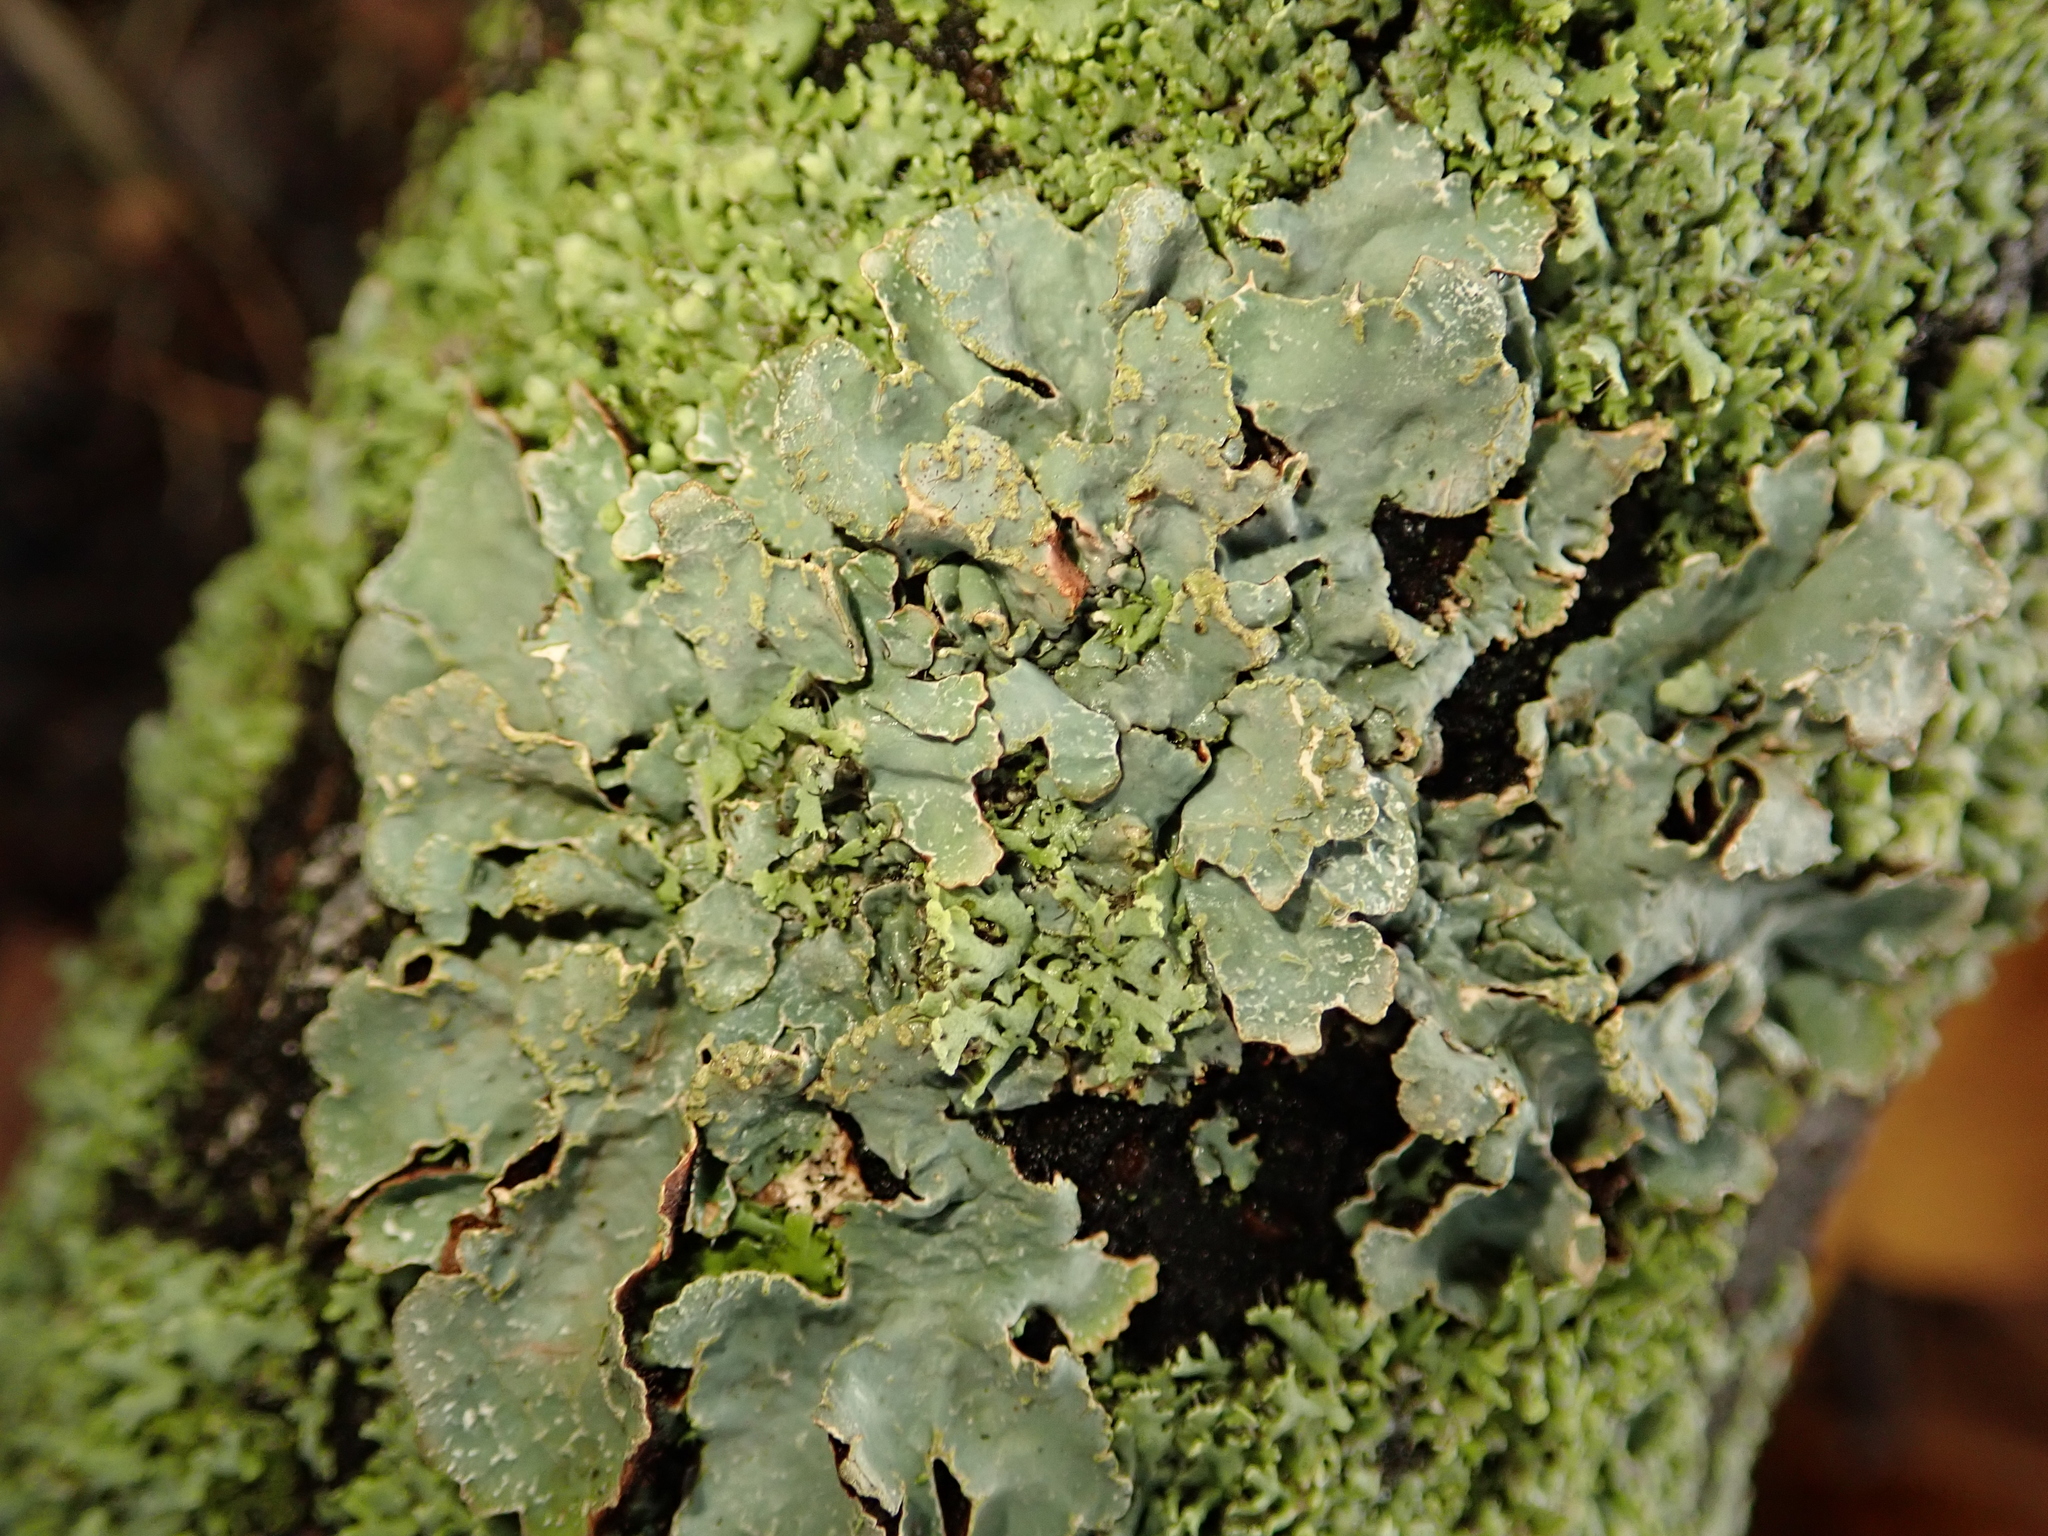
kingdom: Fungi
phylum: Ascomycota
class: Lecanoromycetes
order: Lecanorales
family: Parmeliaceae
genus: Parmelia
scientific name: Parmelia sulcata
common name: Netted shield lichen
